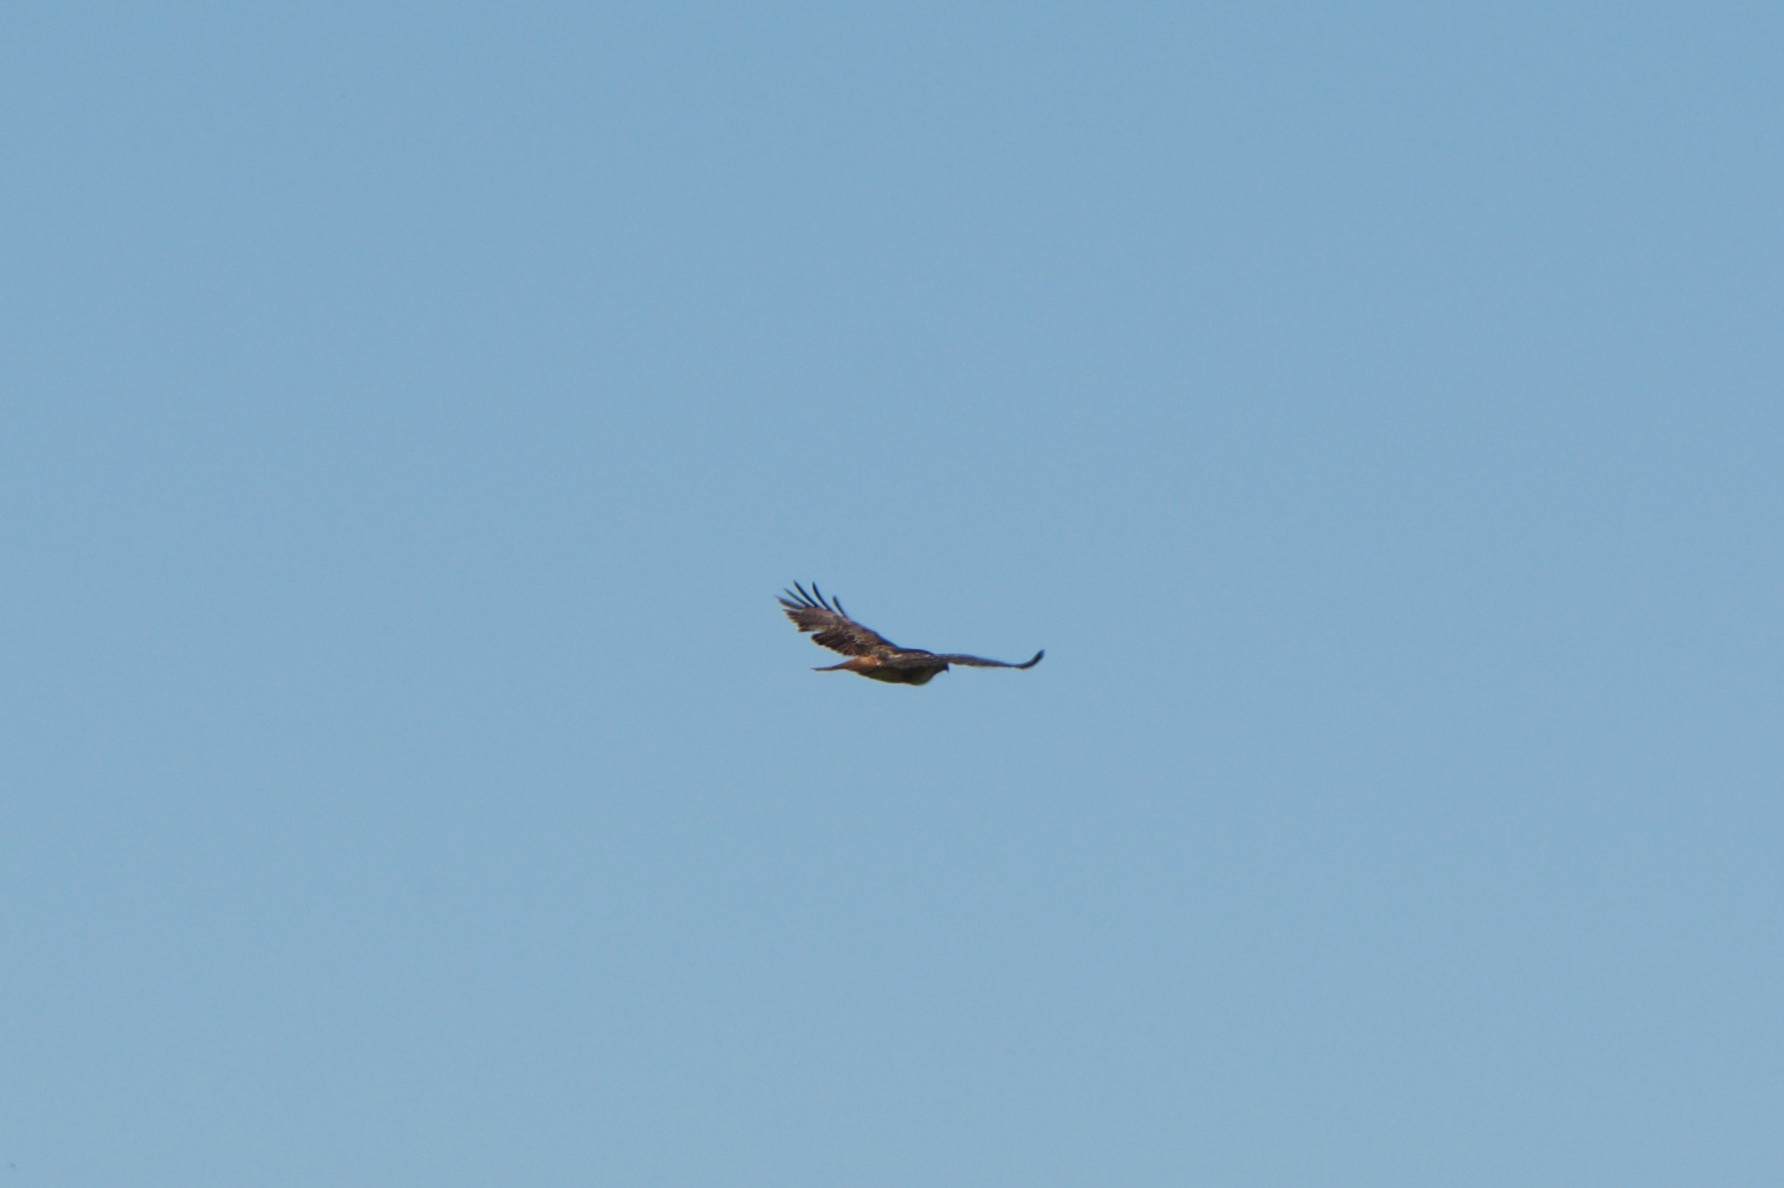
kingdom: Animalia
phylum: Chordata
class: Aves
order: Accipitriformes
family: Accipitridae
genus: Buteo
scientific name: Buteo jamaicensis
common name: Red-tailed hawk
